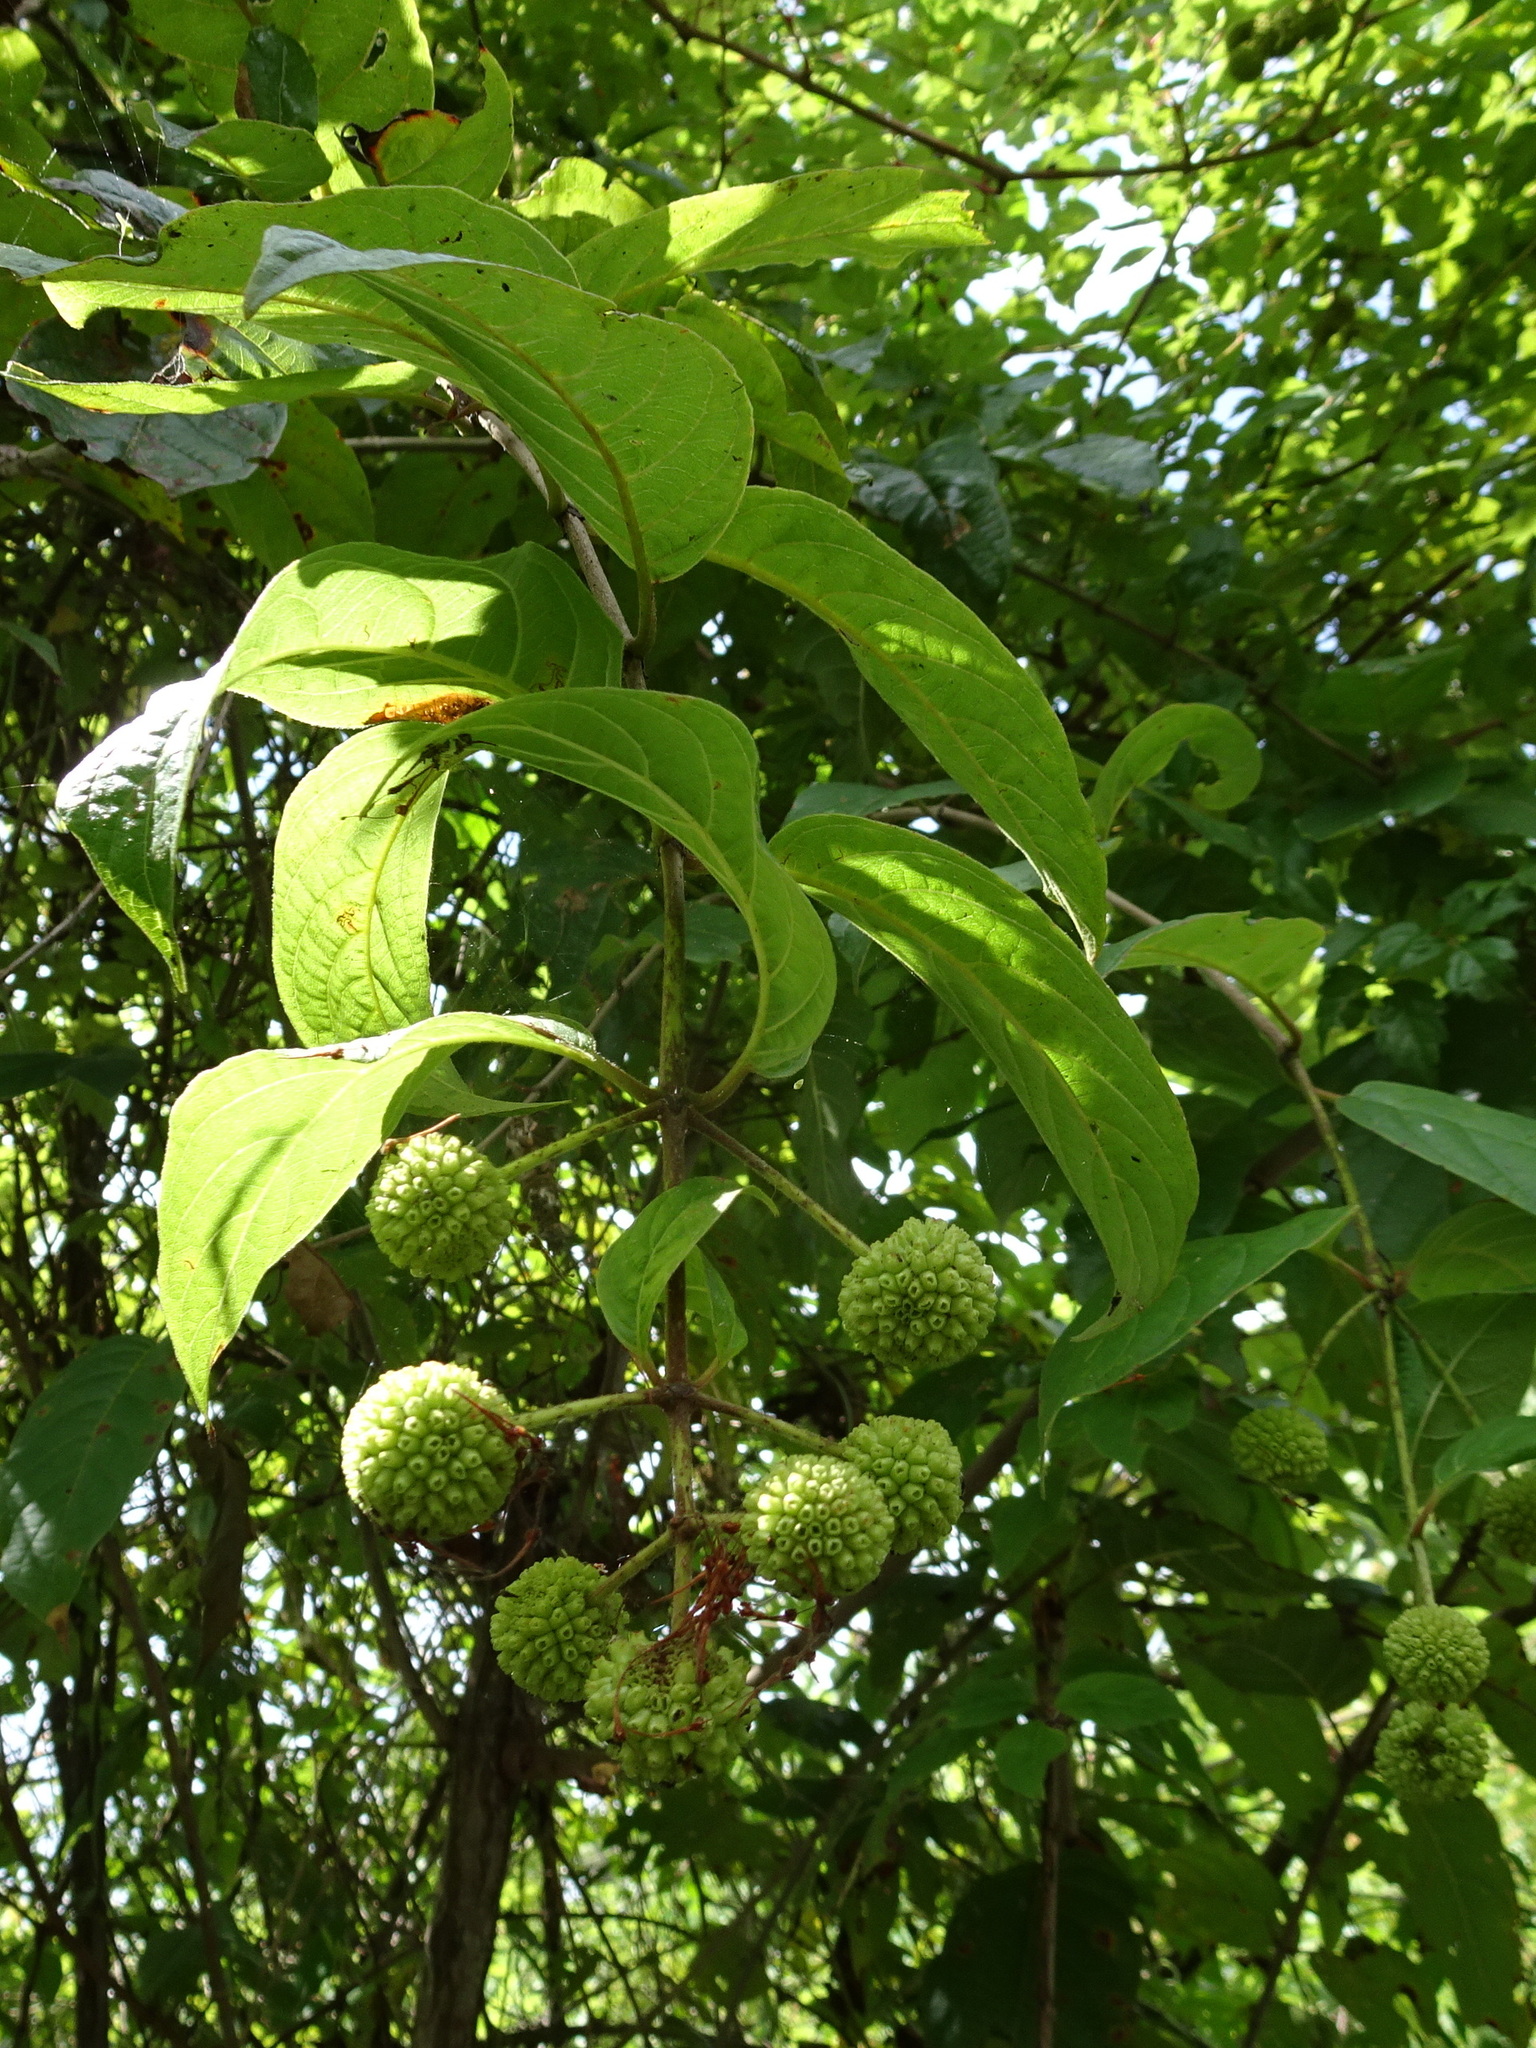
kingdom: Plantae
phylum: Tracheophyta
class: Magnoliopsida
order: Gentianales
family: Rubiaceae
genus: Cephalanthus
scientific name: Cephalanthus occidentalis
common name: Button-willow
